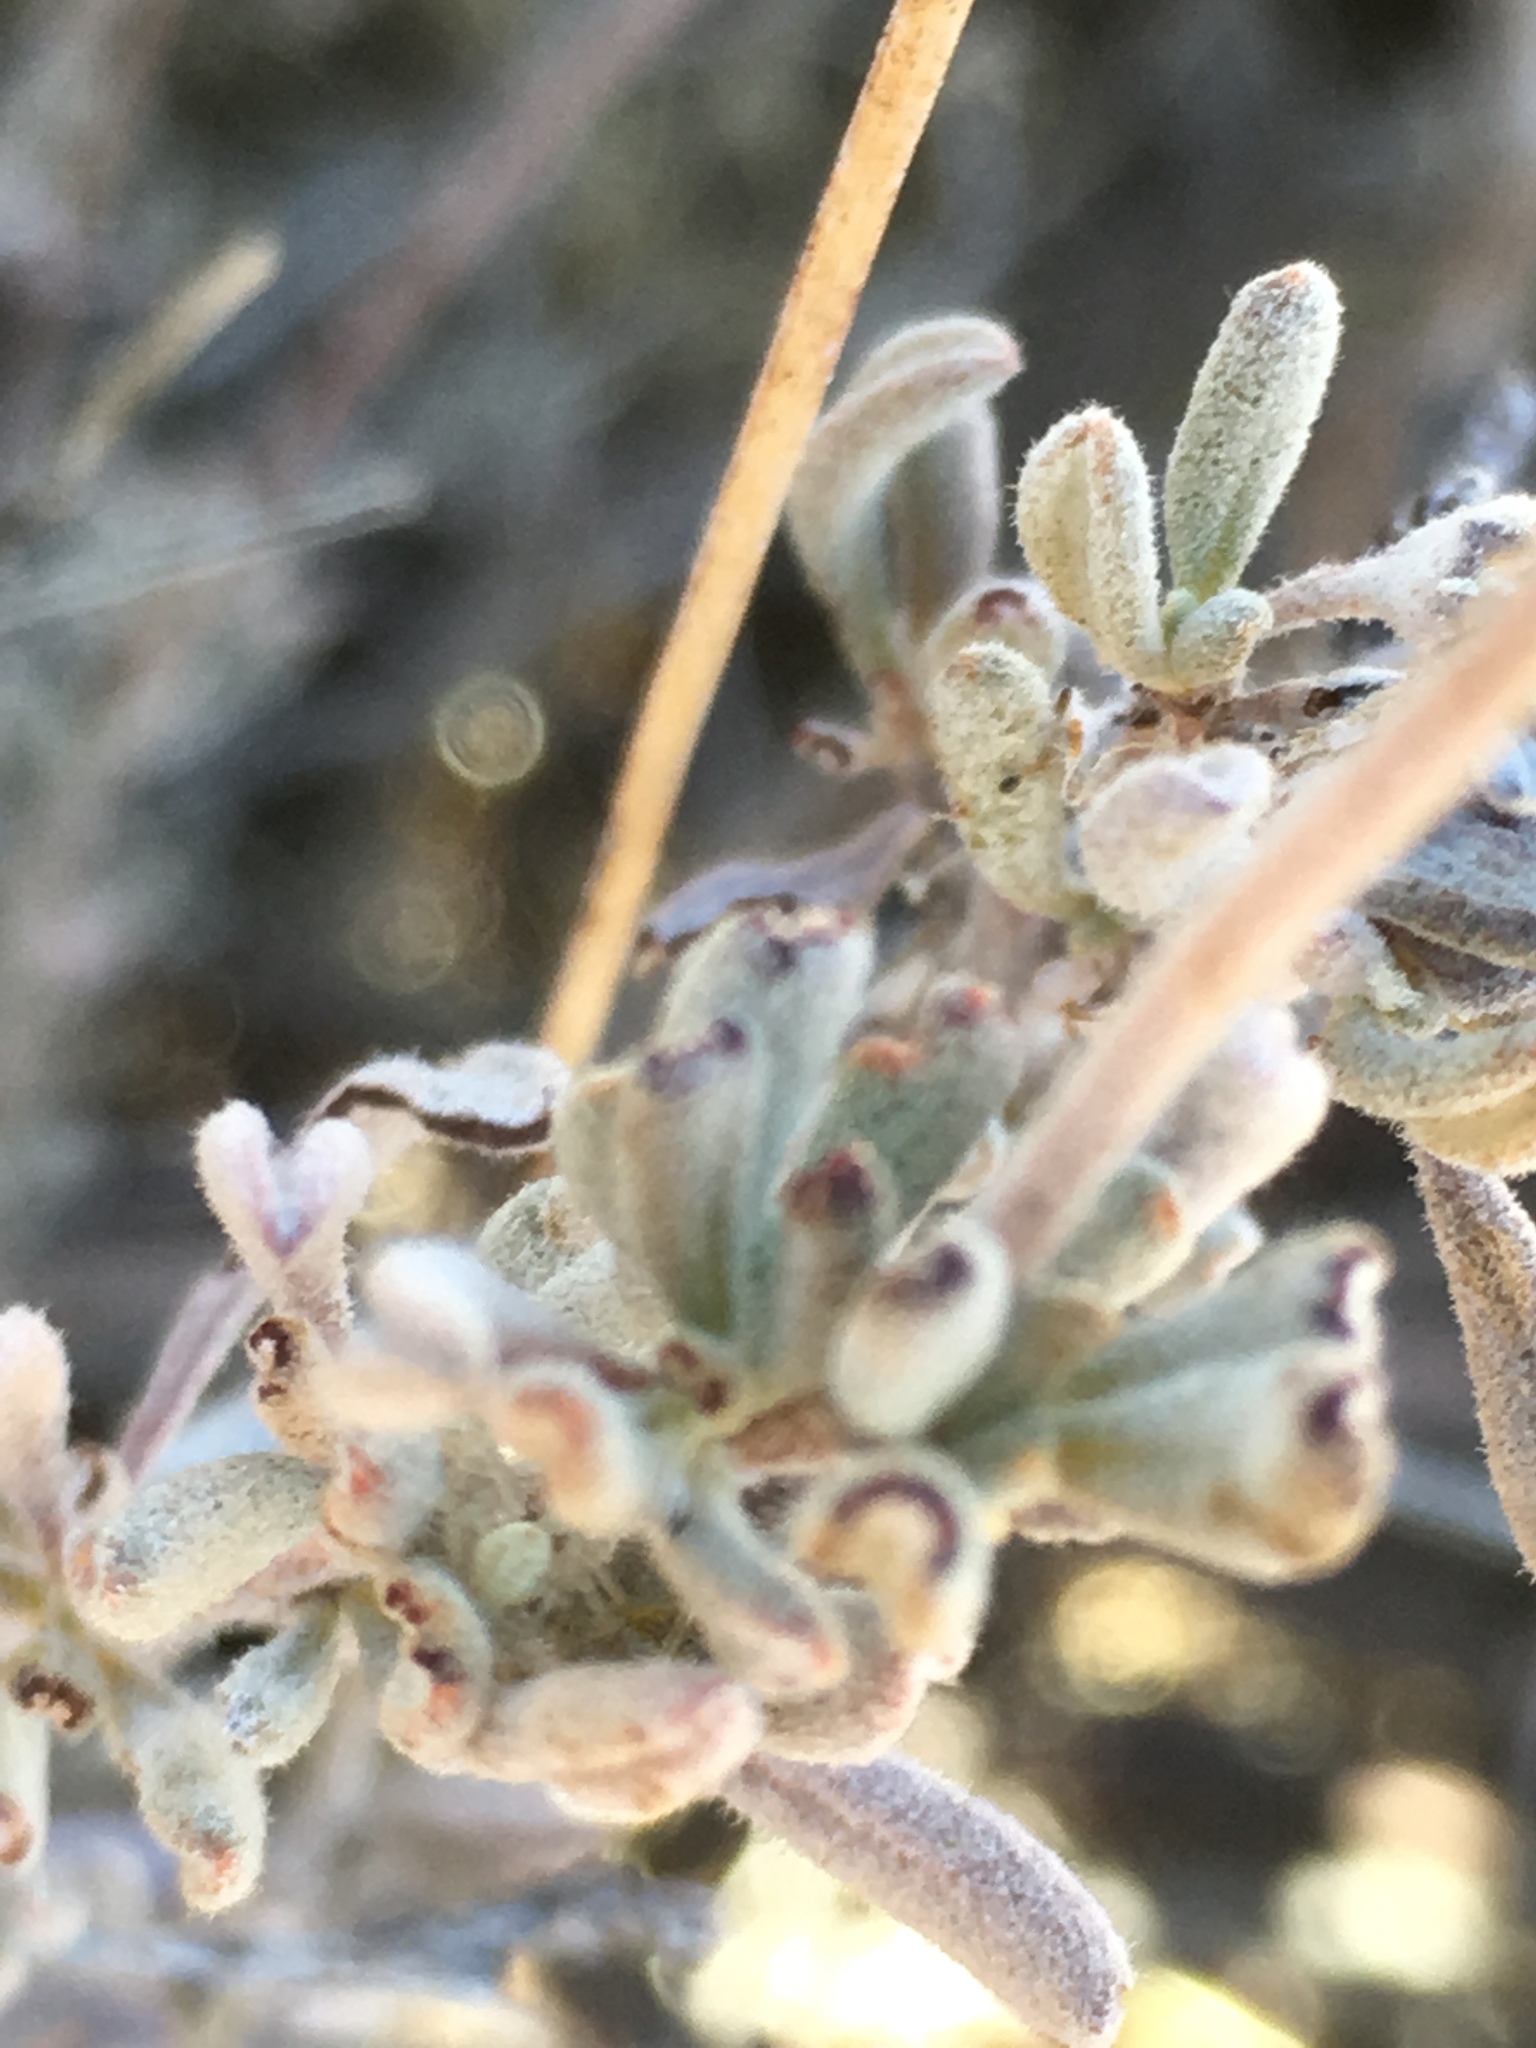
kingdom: Plantae
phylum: Tracheophyta
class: Magnoliopsida
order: Caryophyllales
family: Polygonaceae
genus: Eriogonum
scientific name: Eriogonum fasciculatum
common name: California wild buckwheat
